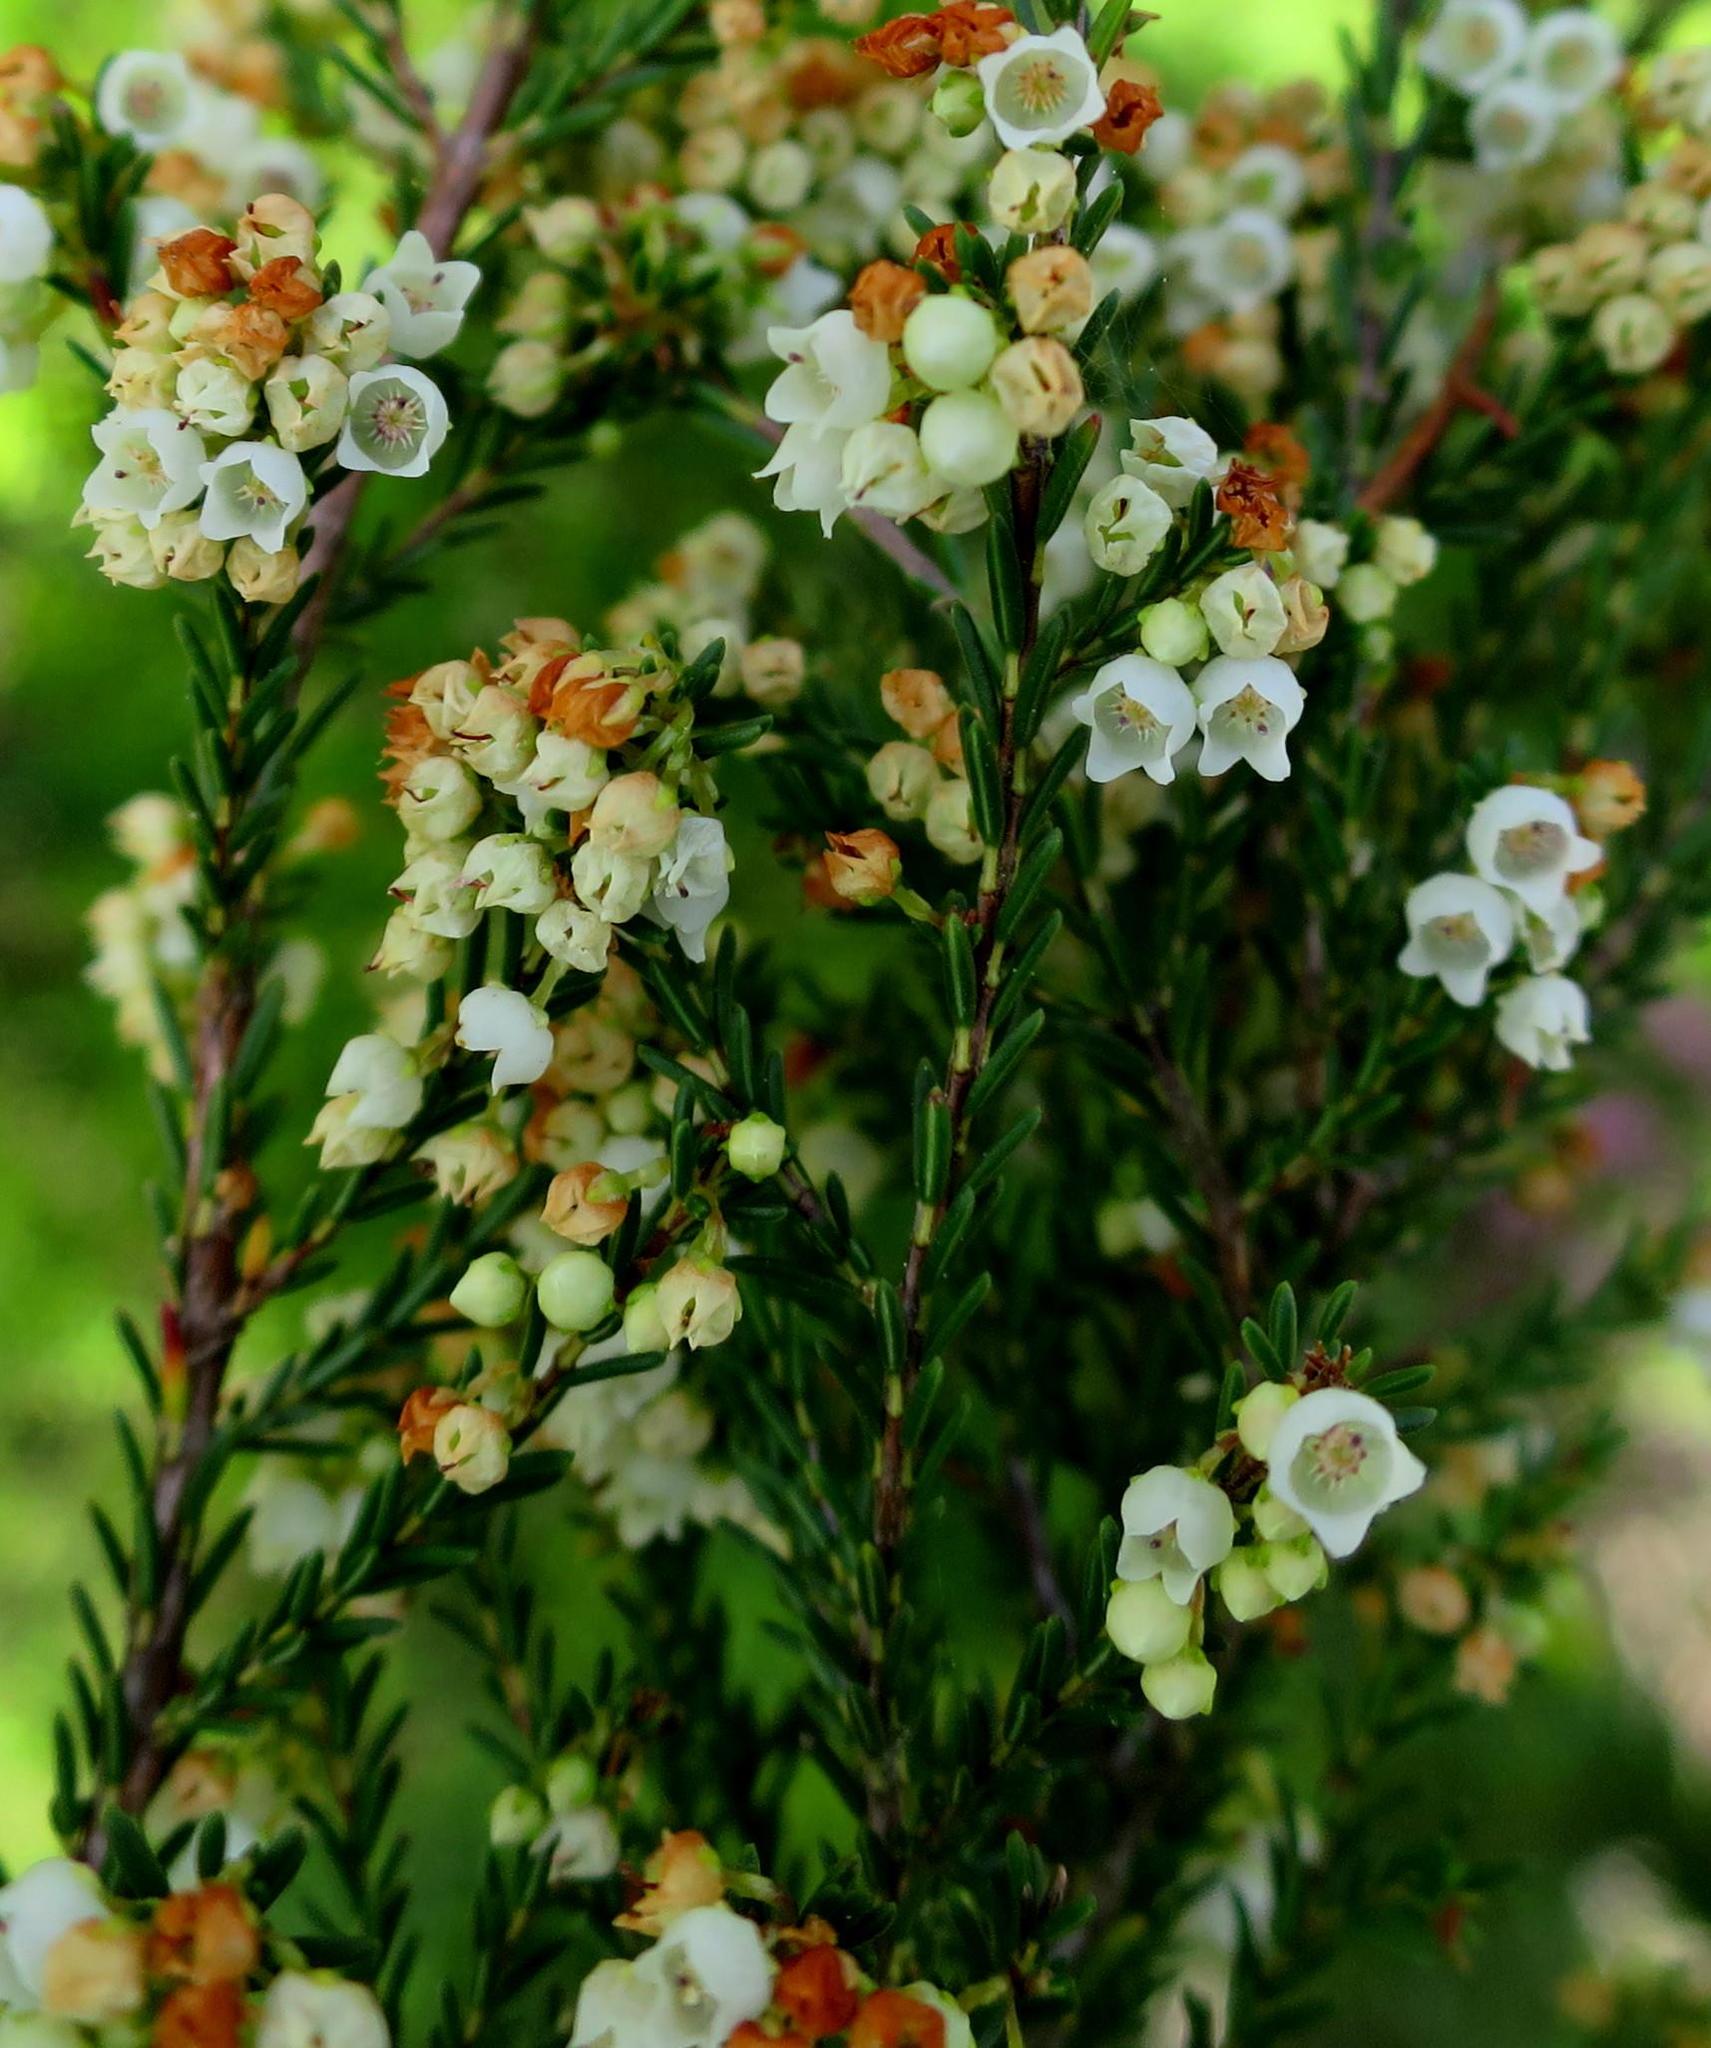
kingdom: Plantae
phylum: Tracheophyta
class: Magnoliopsida
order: Ericales
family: Ericaceae
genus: Erica
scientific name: Erica tenuis
